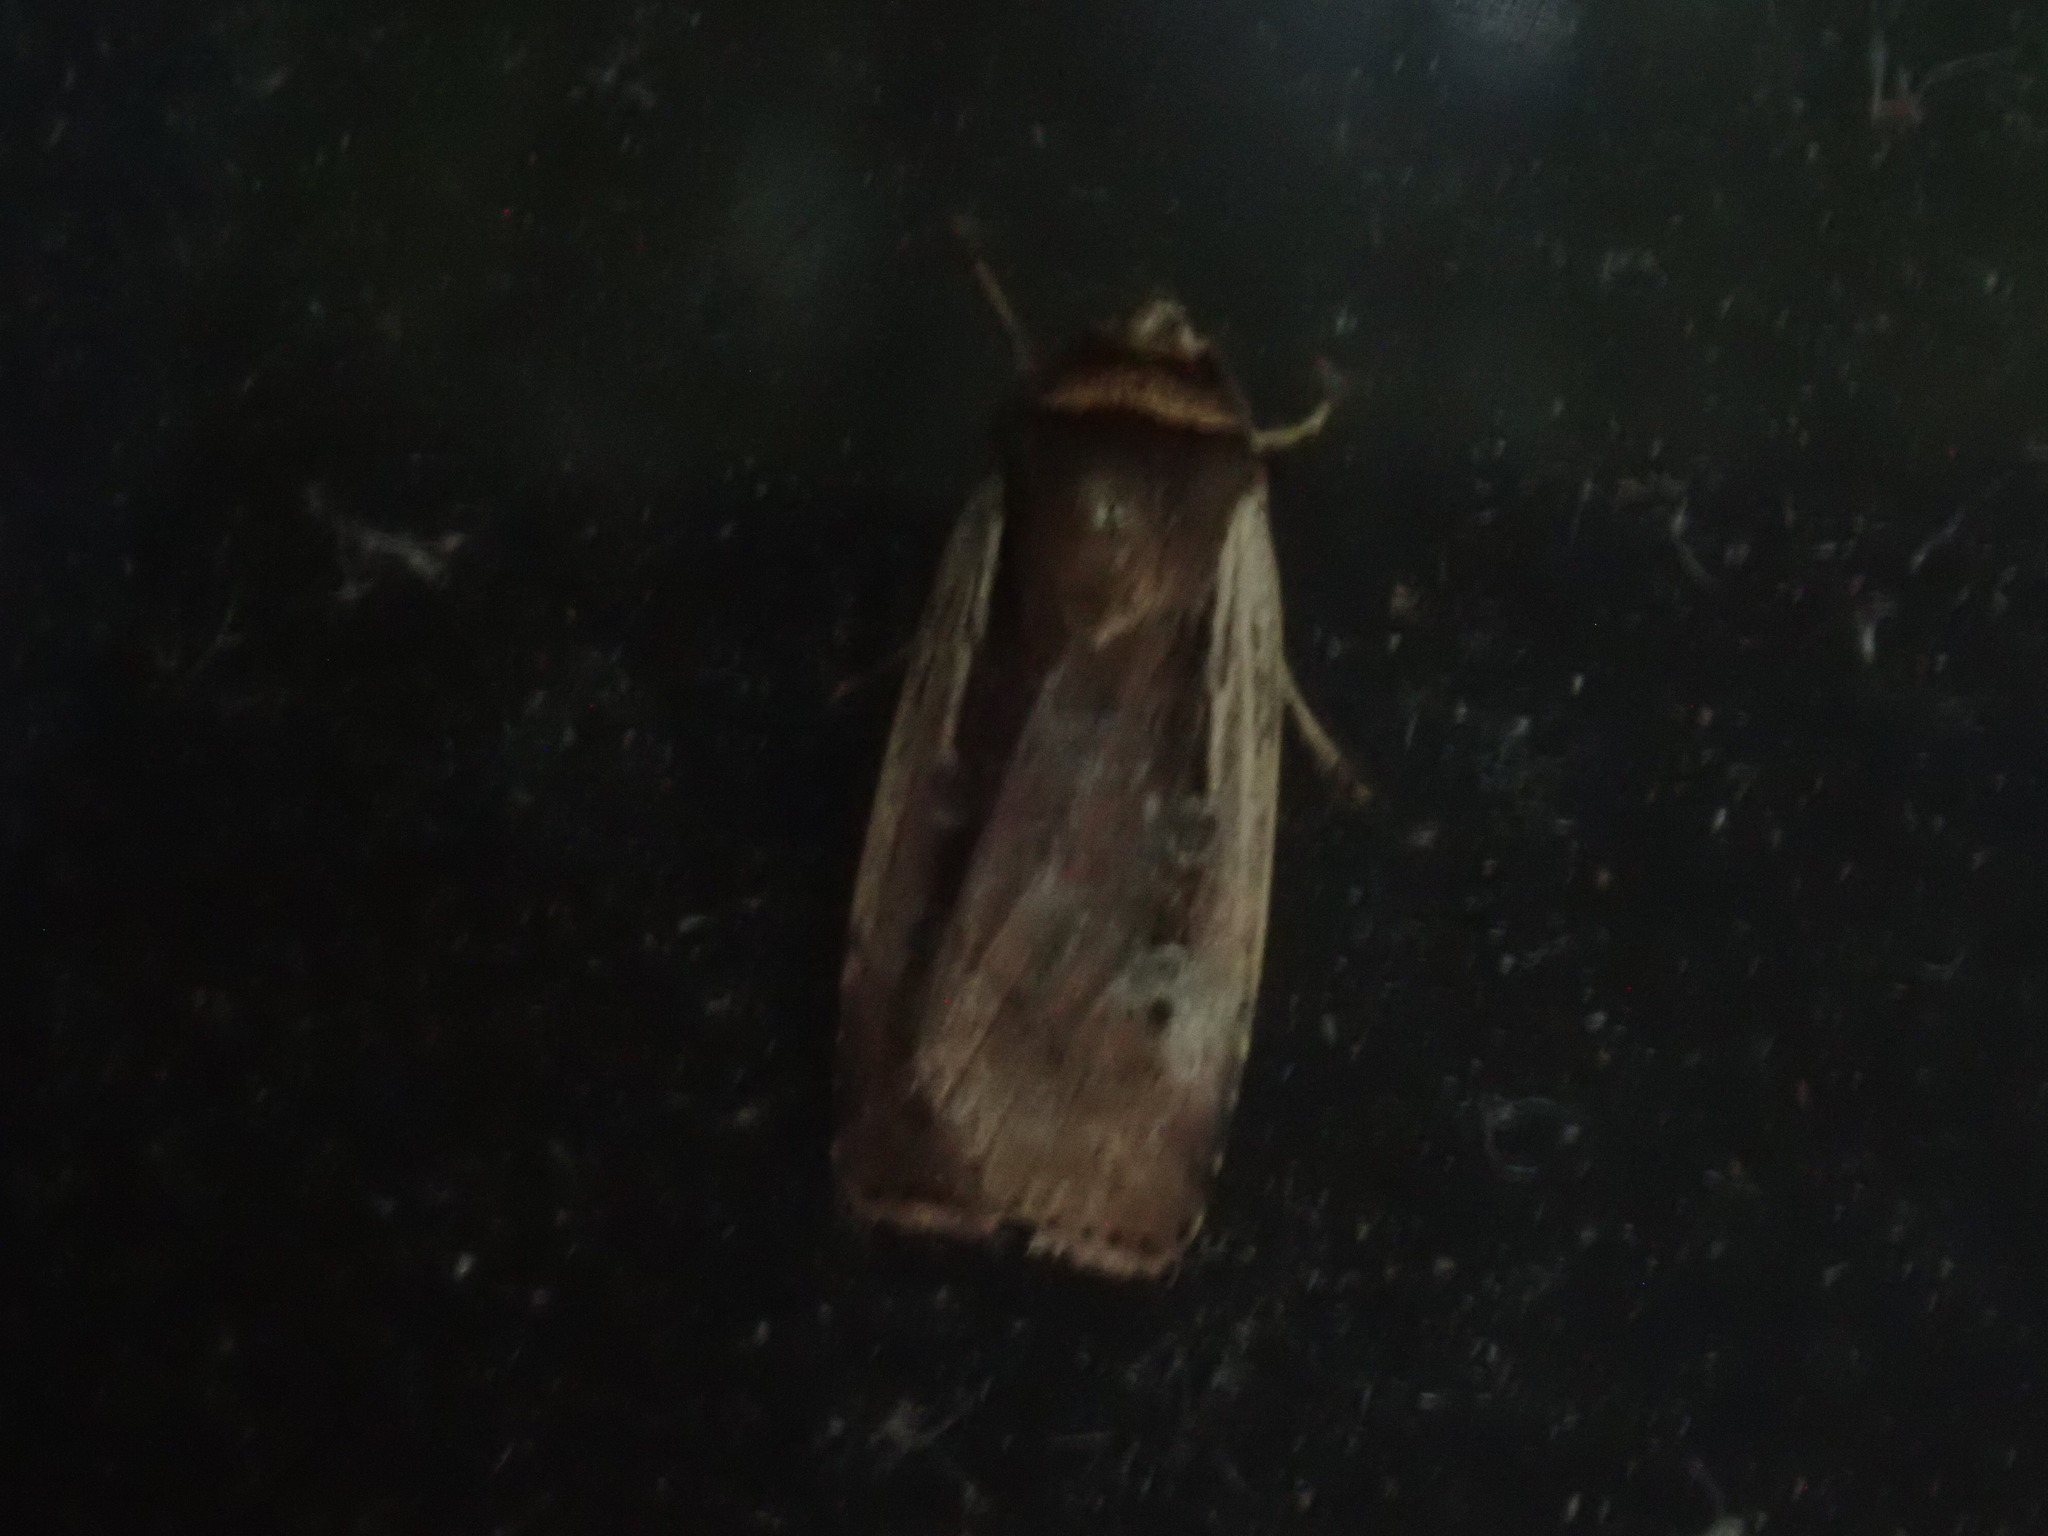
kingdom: Animalia
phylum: Arthropoda
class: Insecta
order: Lepidoptera
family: Noctuidae
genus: Ochropleura
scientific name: Ochropleura implecta
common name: Flame-shouldered dart
